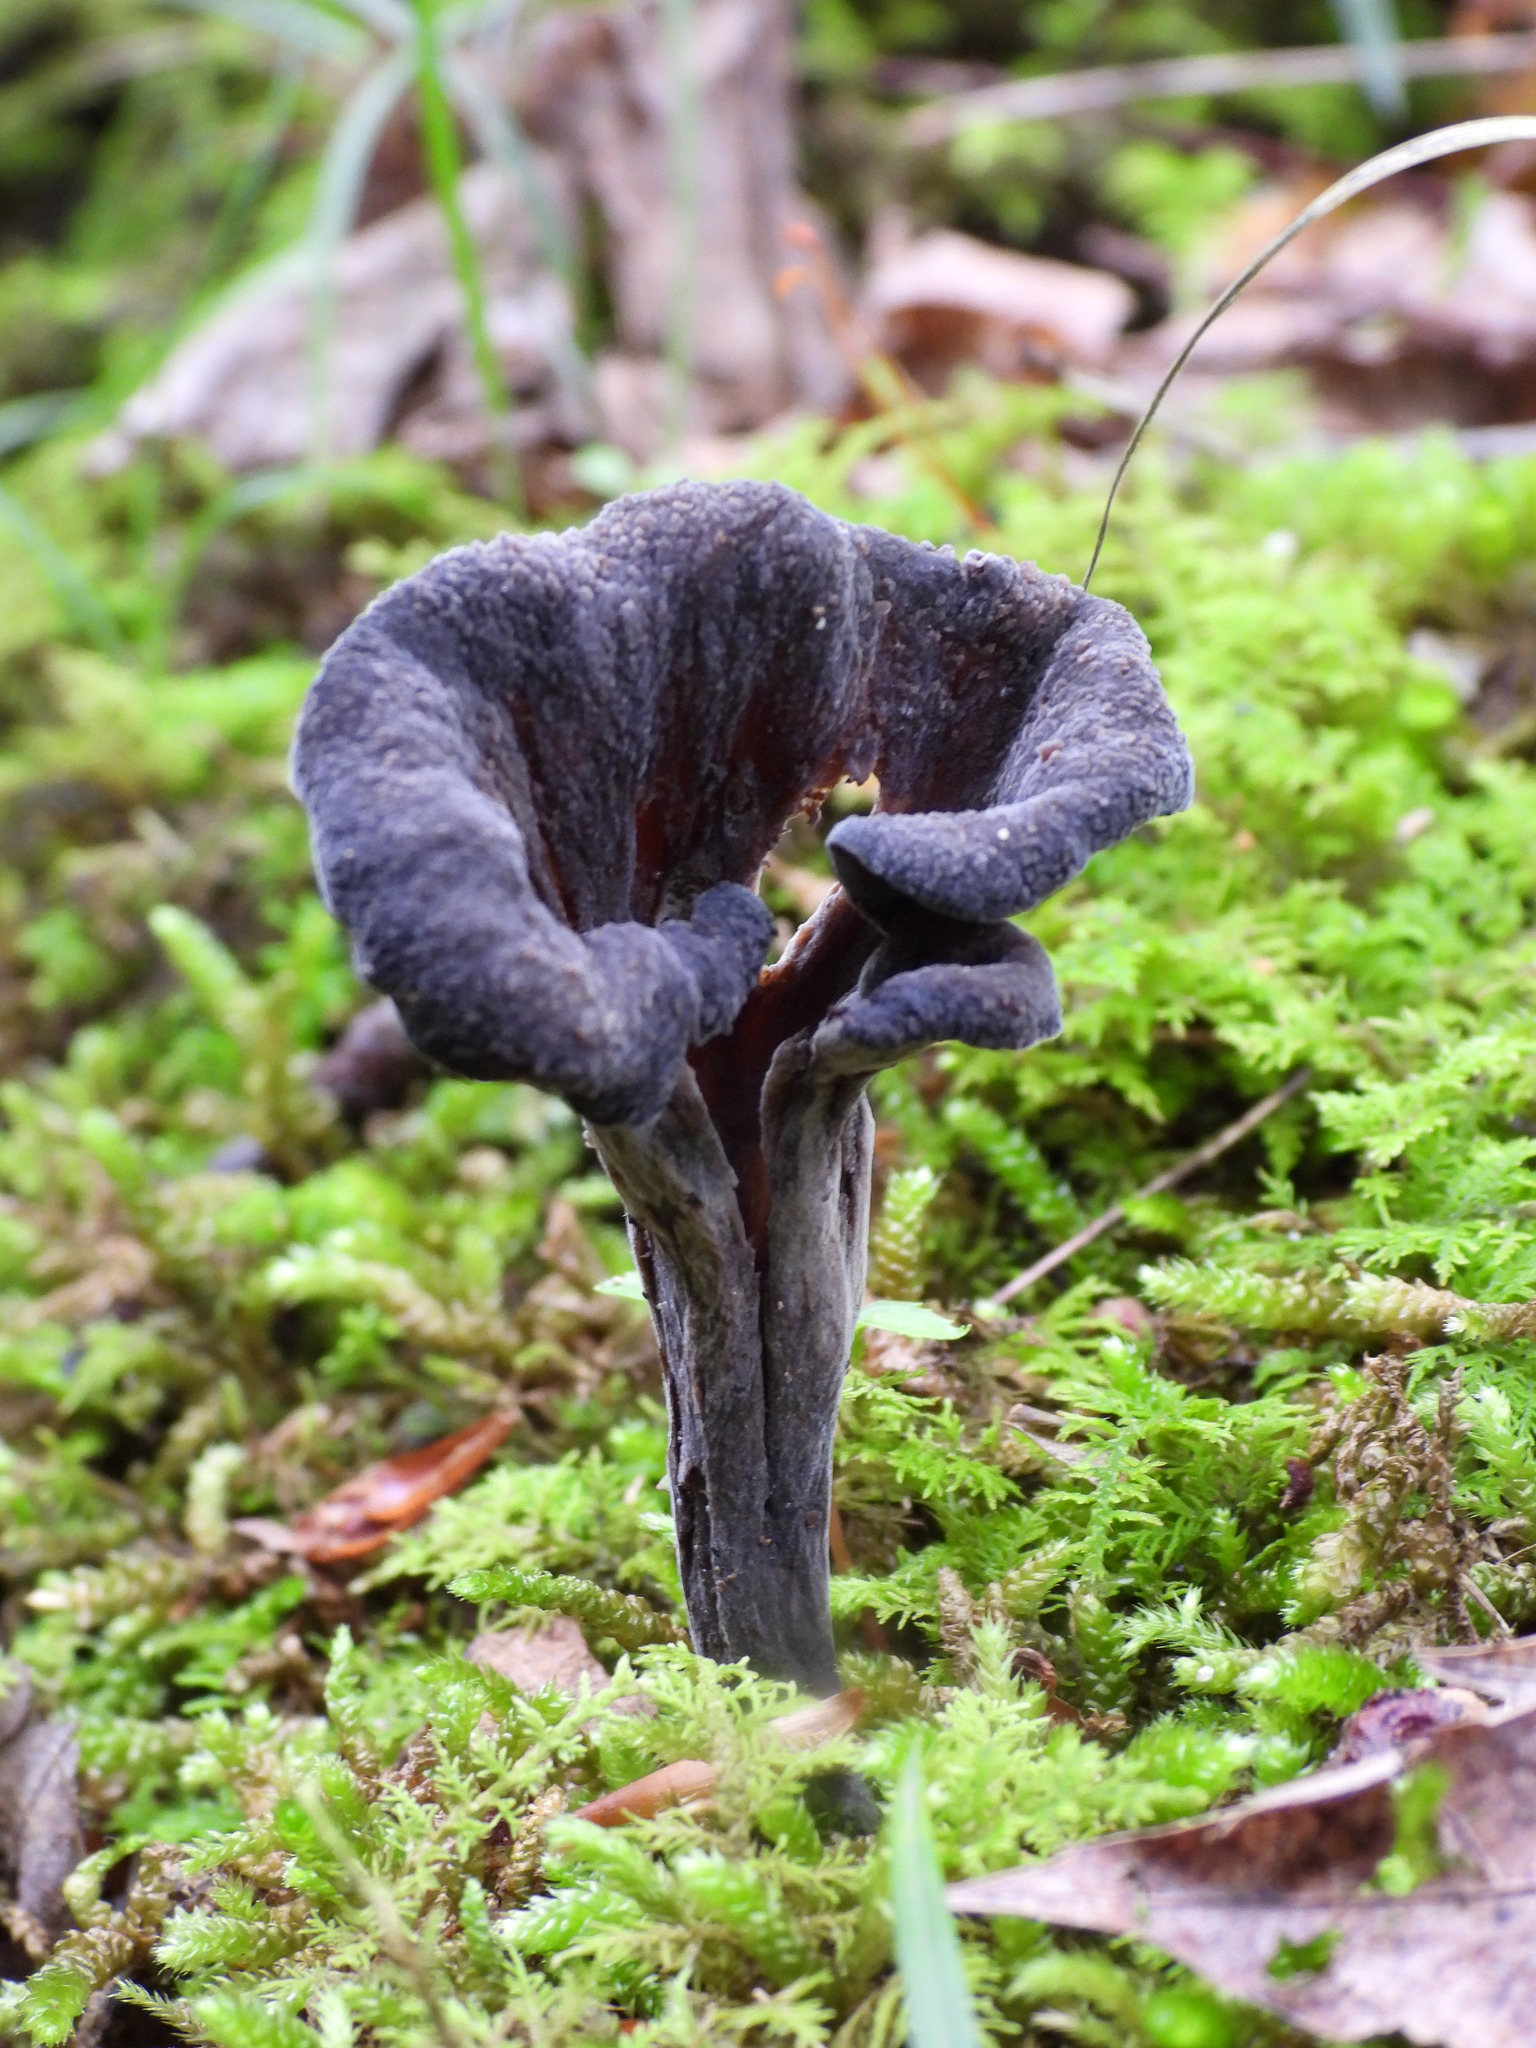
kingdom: Fungi
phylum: Basidiomycota
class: Agaricomycetes
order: Cantharellales
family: Hydnaceae
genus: Craterellus
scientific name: Craterellus cornucopioides
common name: Horn of plenty
